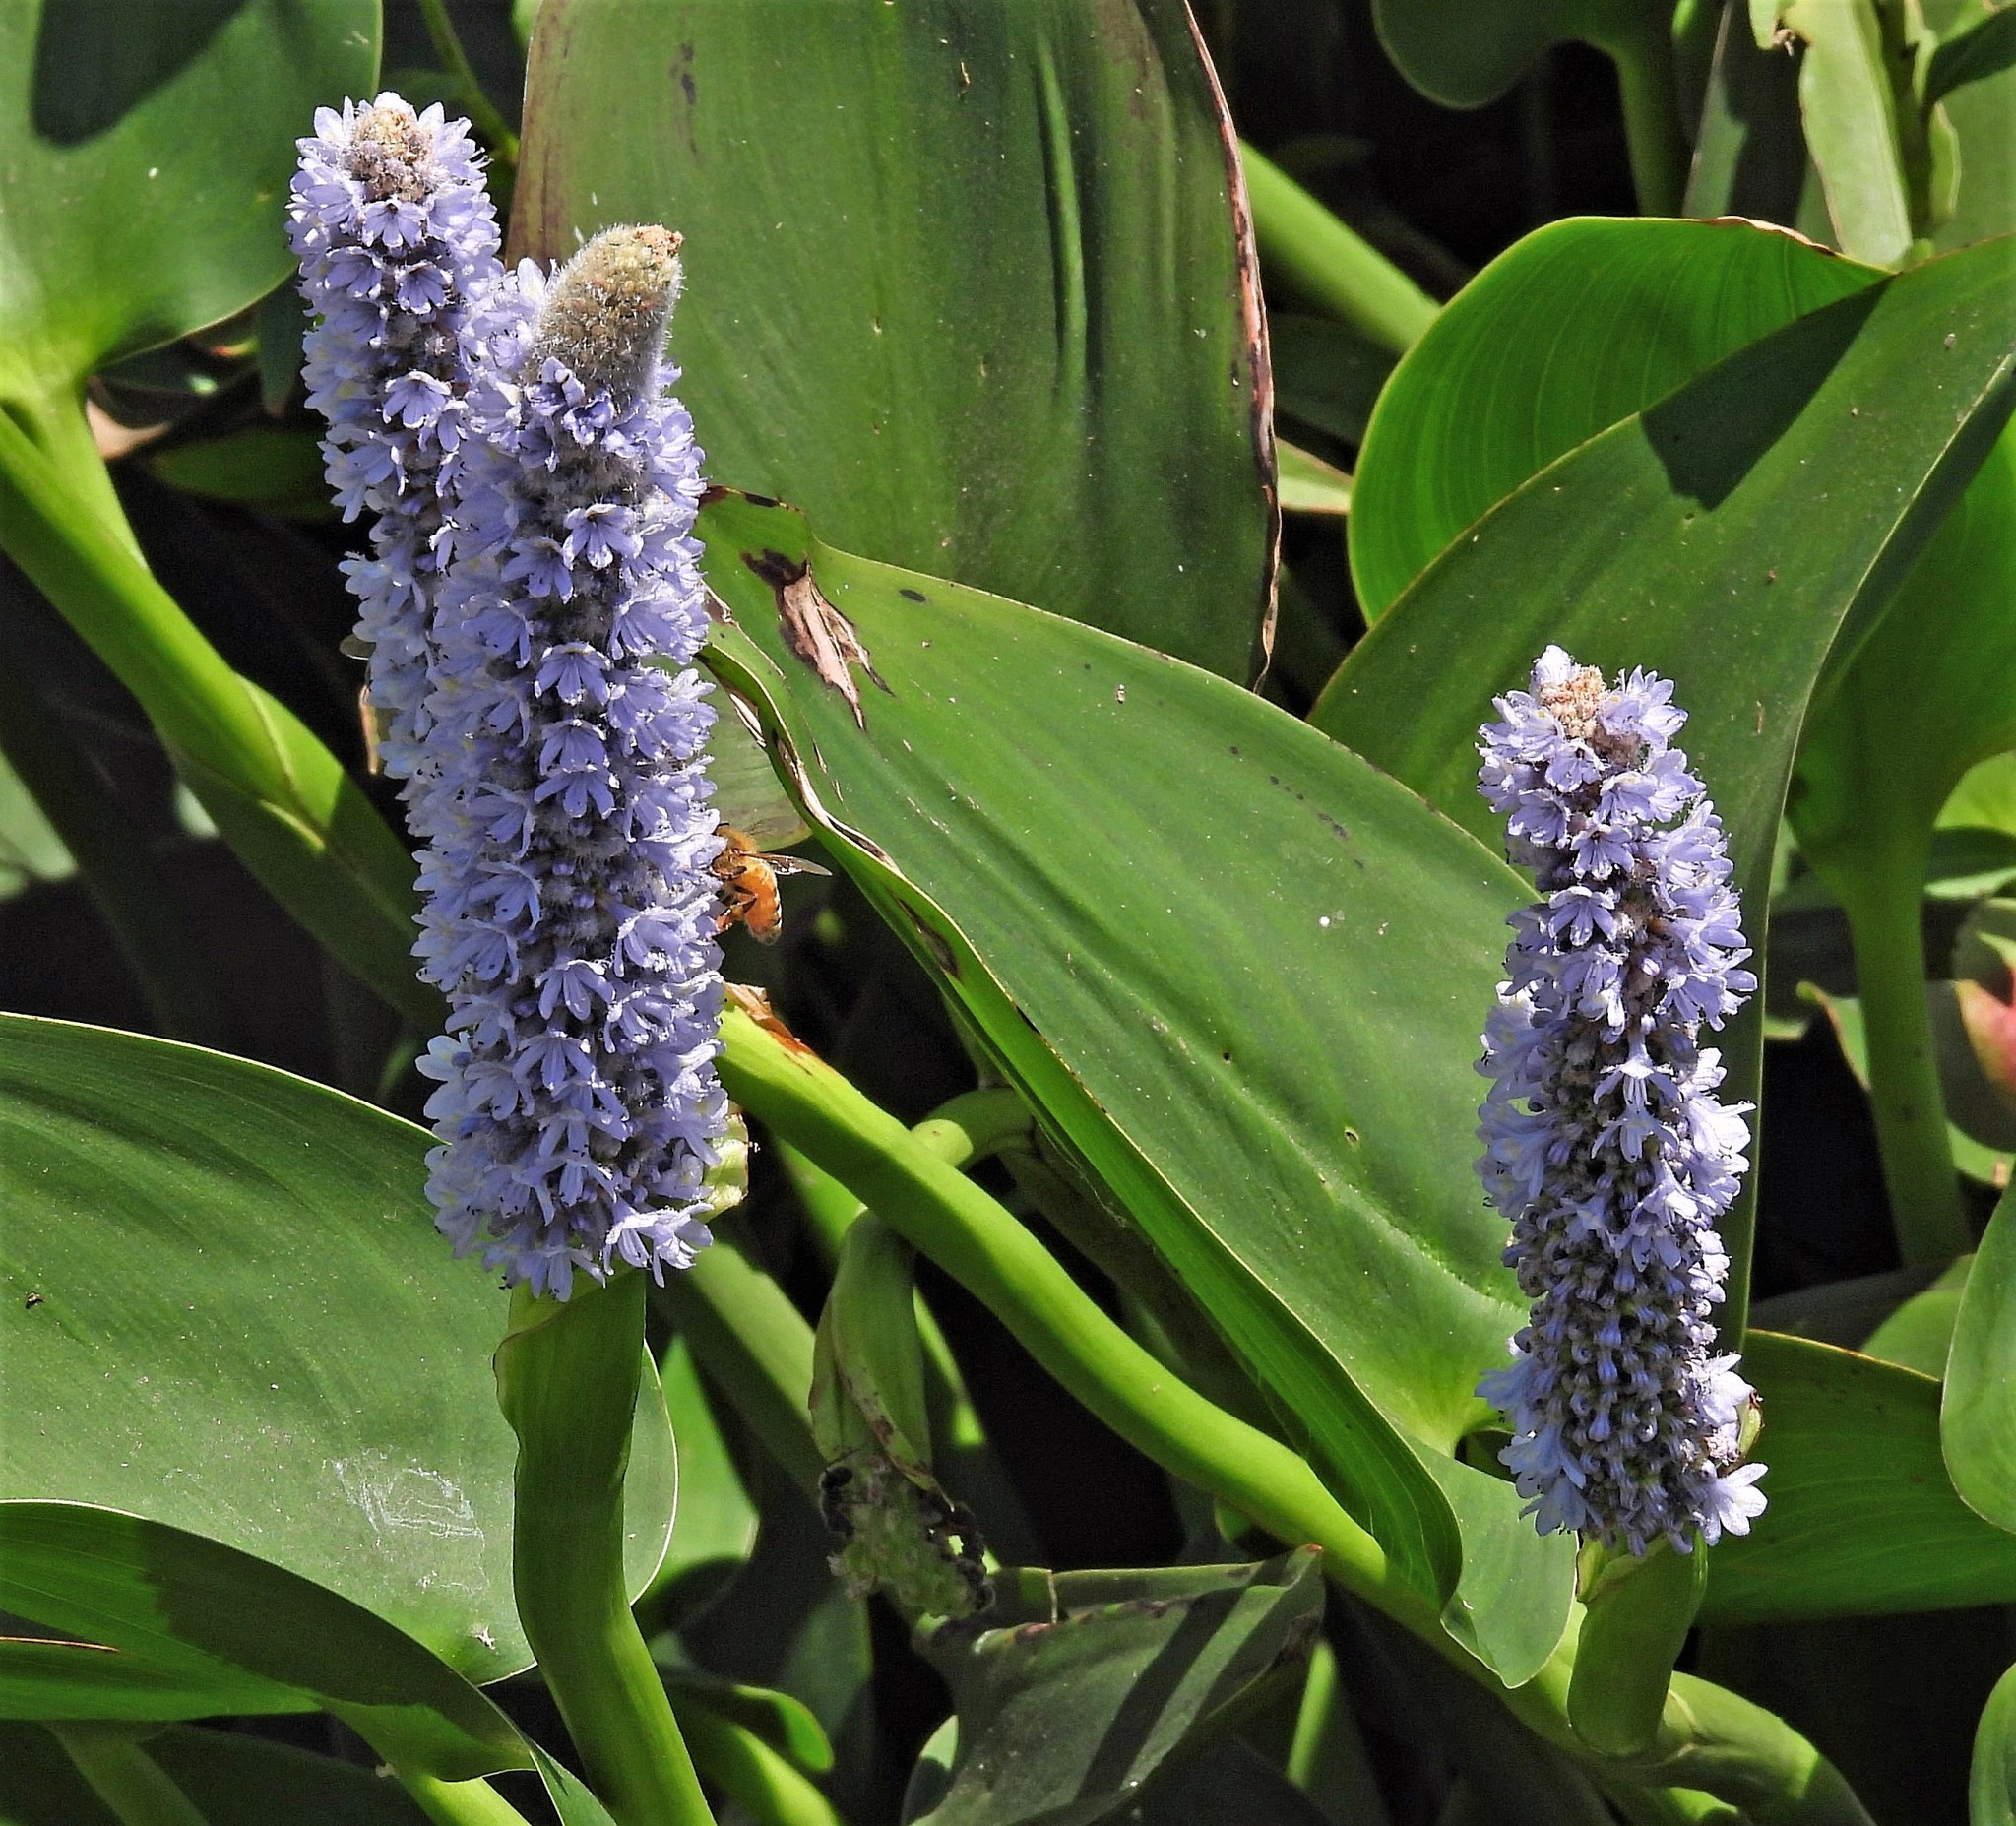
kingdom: Plantae
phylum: Tracheophyta
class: Liliopsida
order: Commelinales
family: Pontederiaceae
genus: Pontederia
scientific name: Pontederia cordata
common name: Pickerelweed
